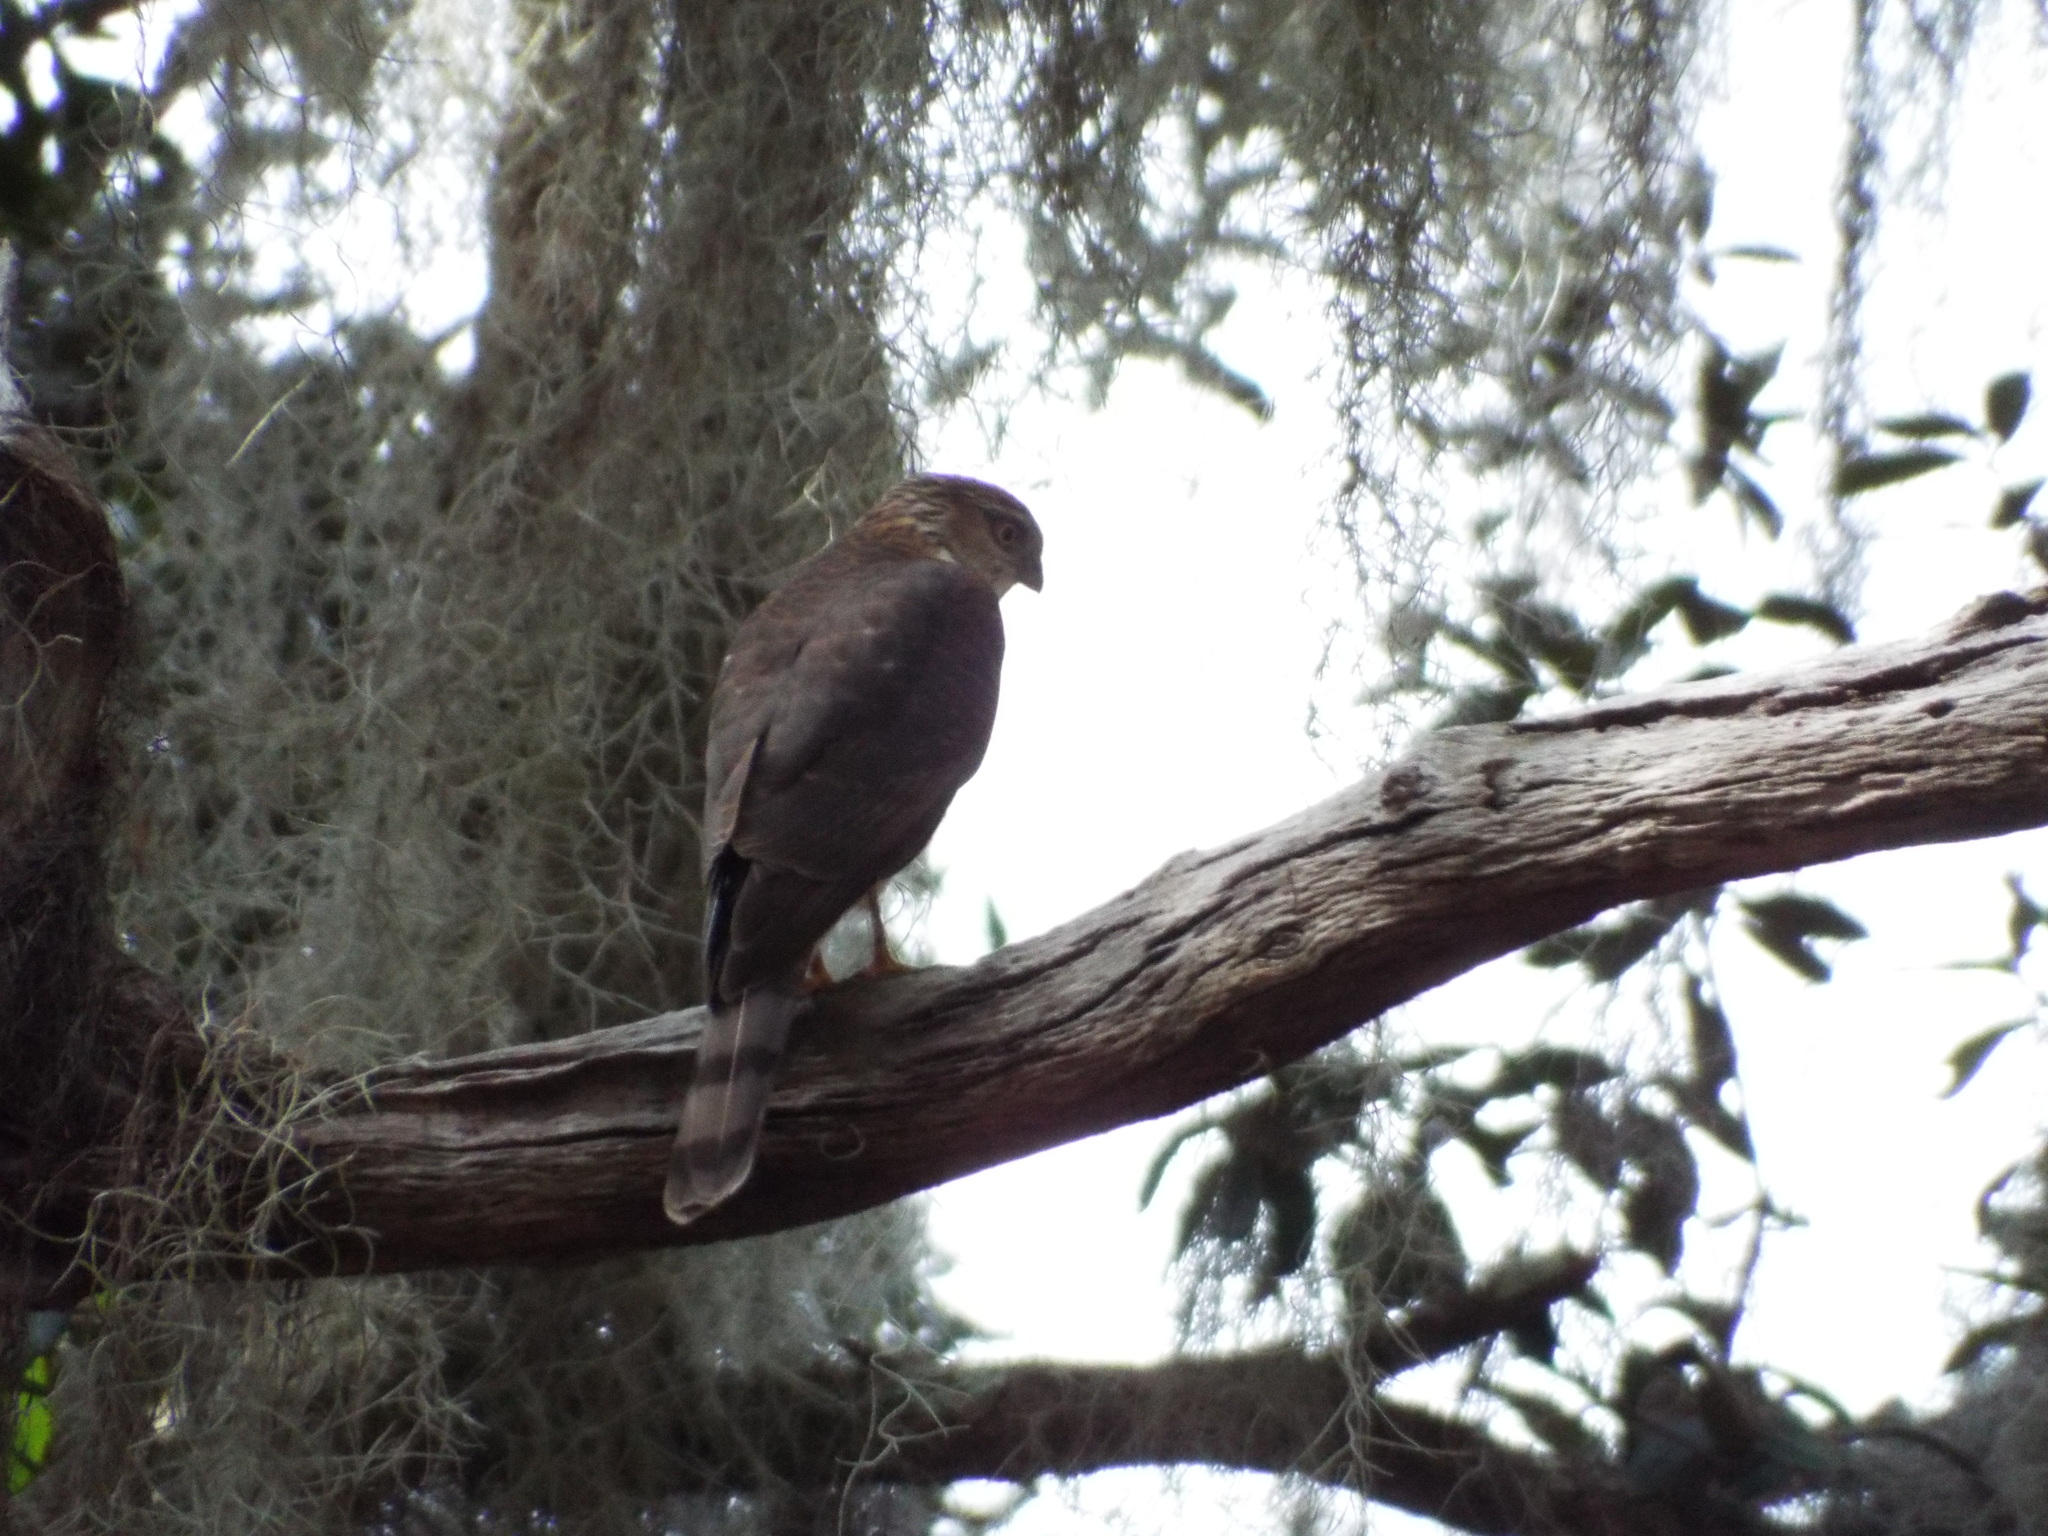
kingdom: Animalia
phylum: Chordata
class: Aves
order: Accipitriformes
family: Accipitridae
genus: Accipiter
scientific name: Accipiter striatus
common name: Sharp-shinned hawk
